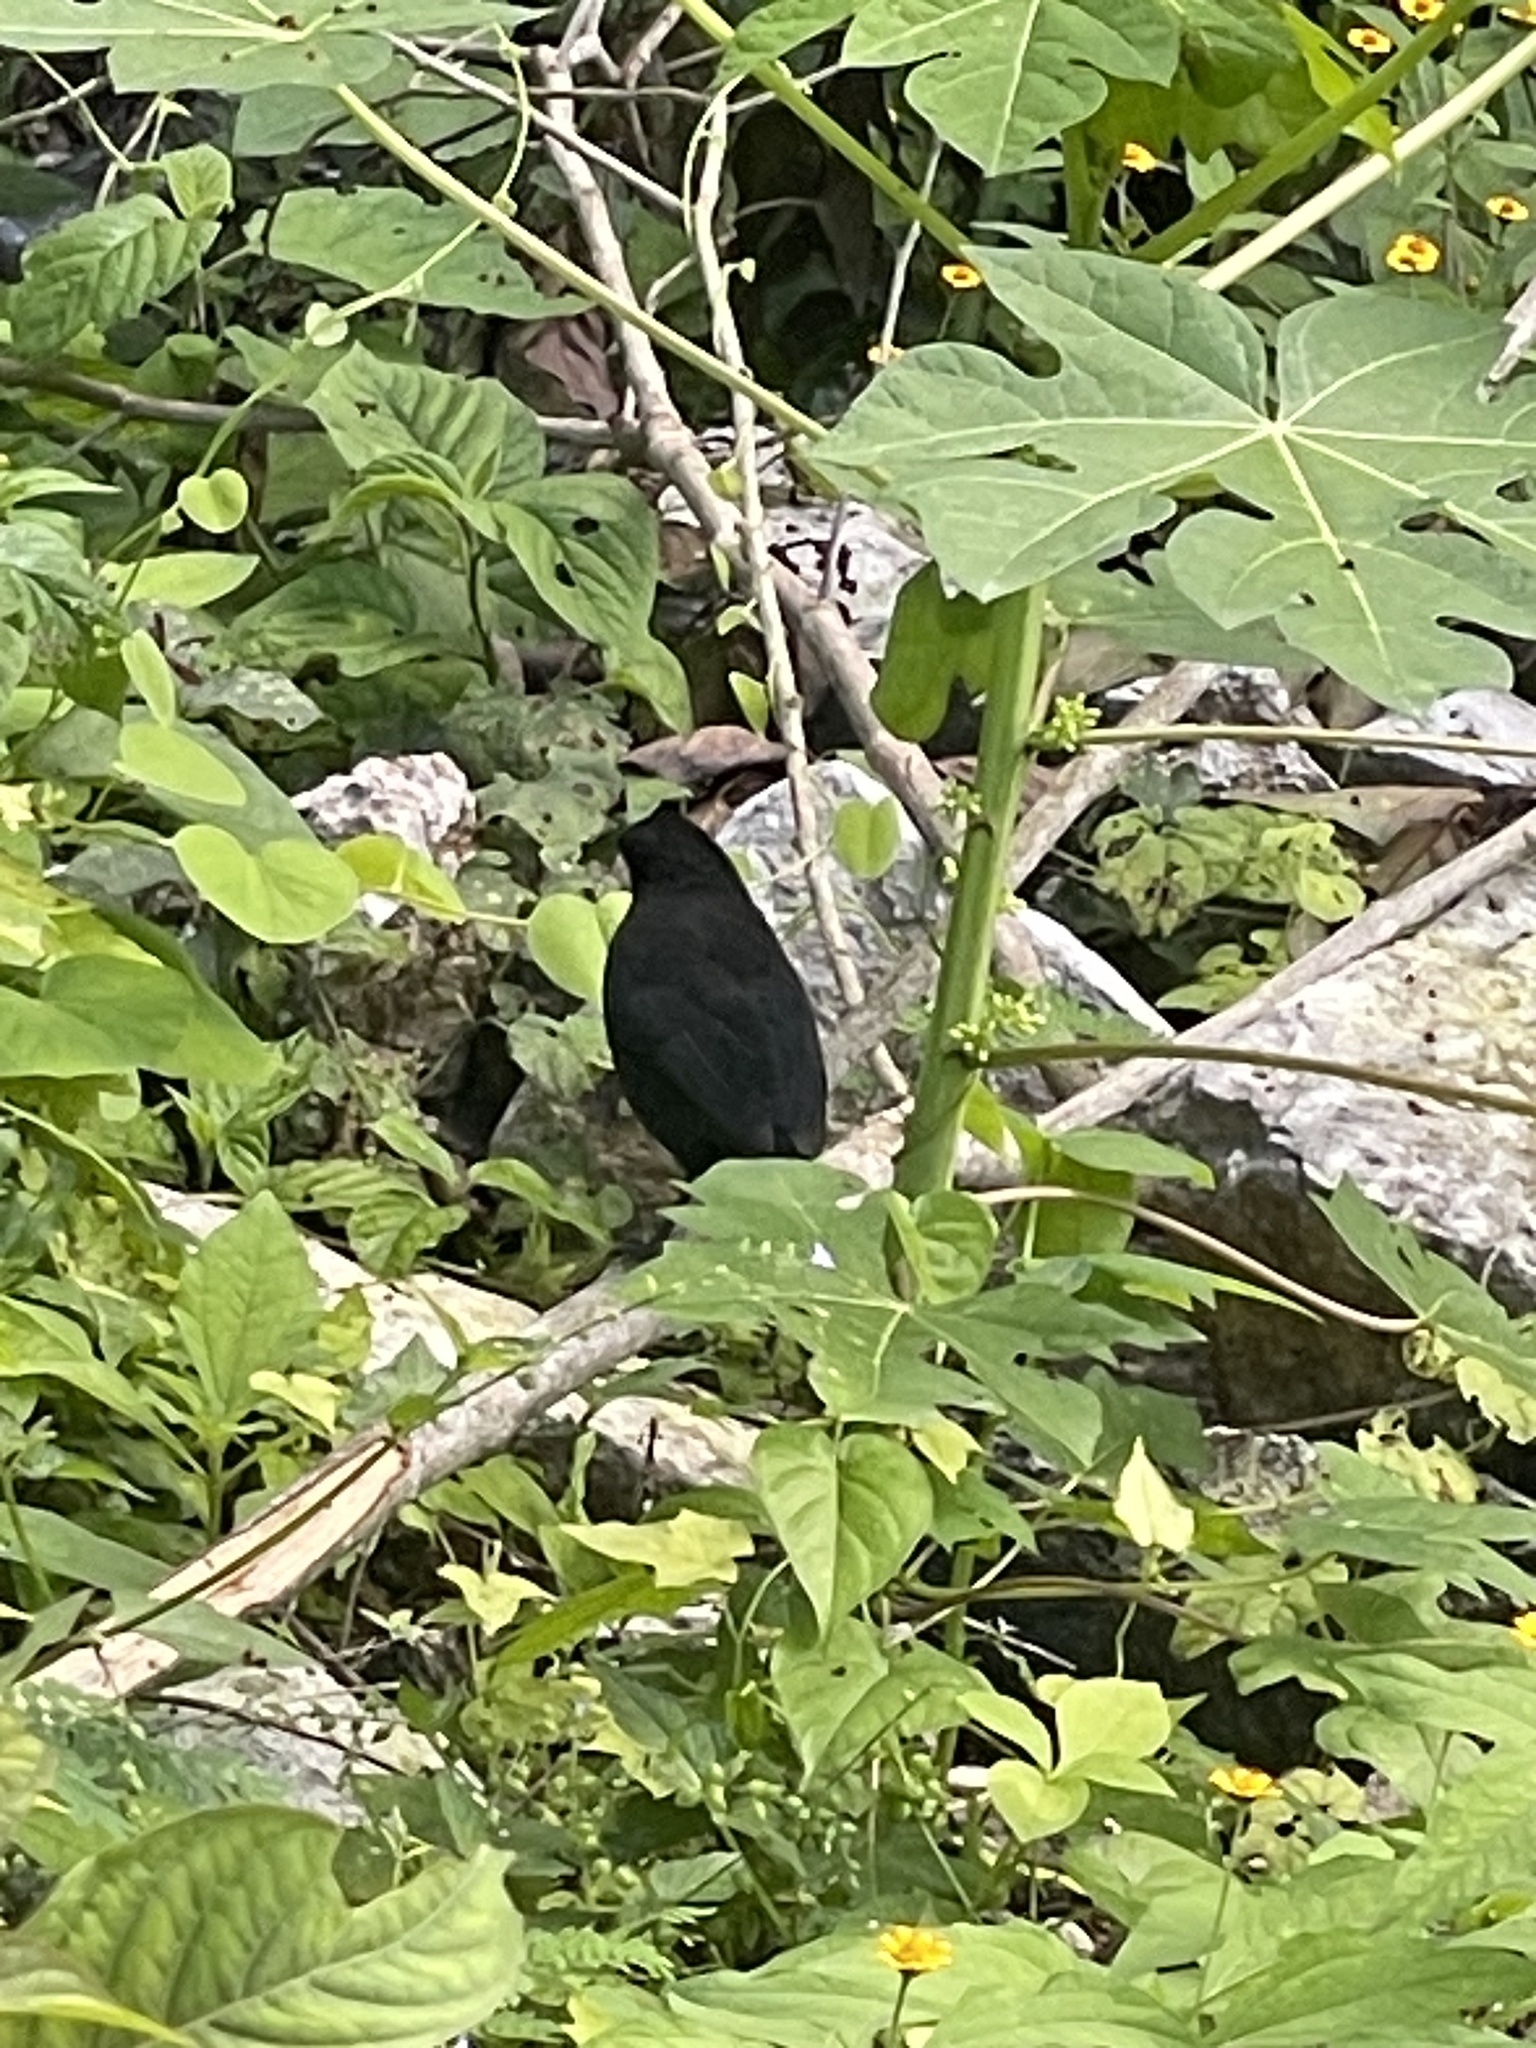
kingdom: Animalia
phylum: Chordata
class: Aves
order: Passeriformes
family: Icteridae
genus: Dives
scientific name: Dives dives
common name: Melodious blackbird
